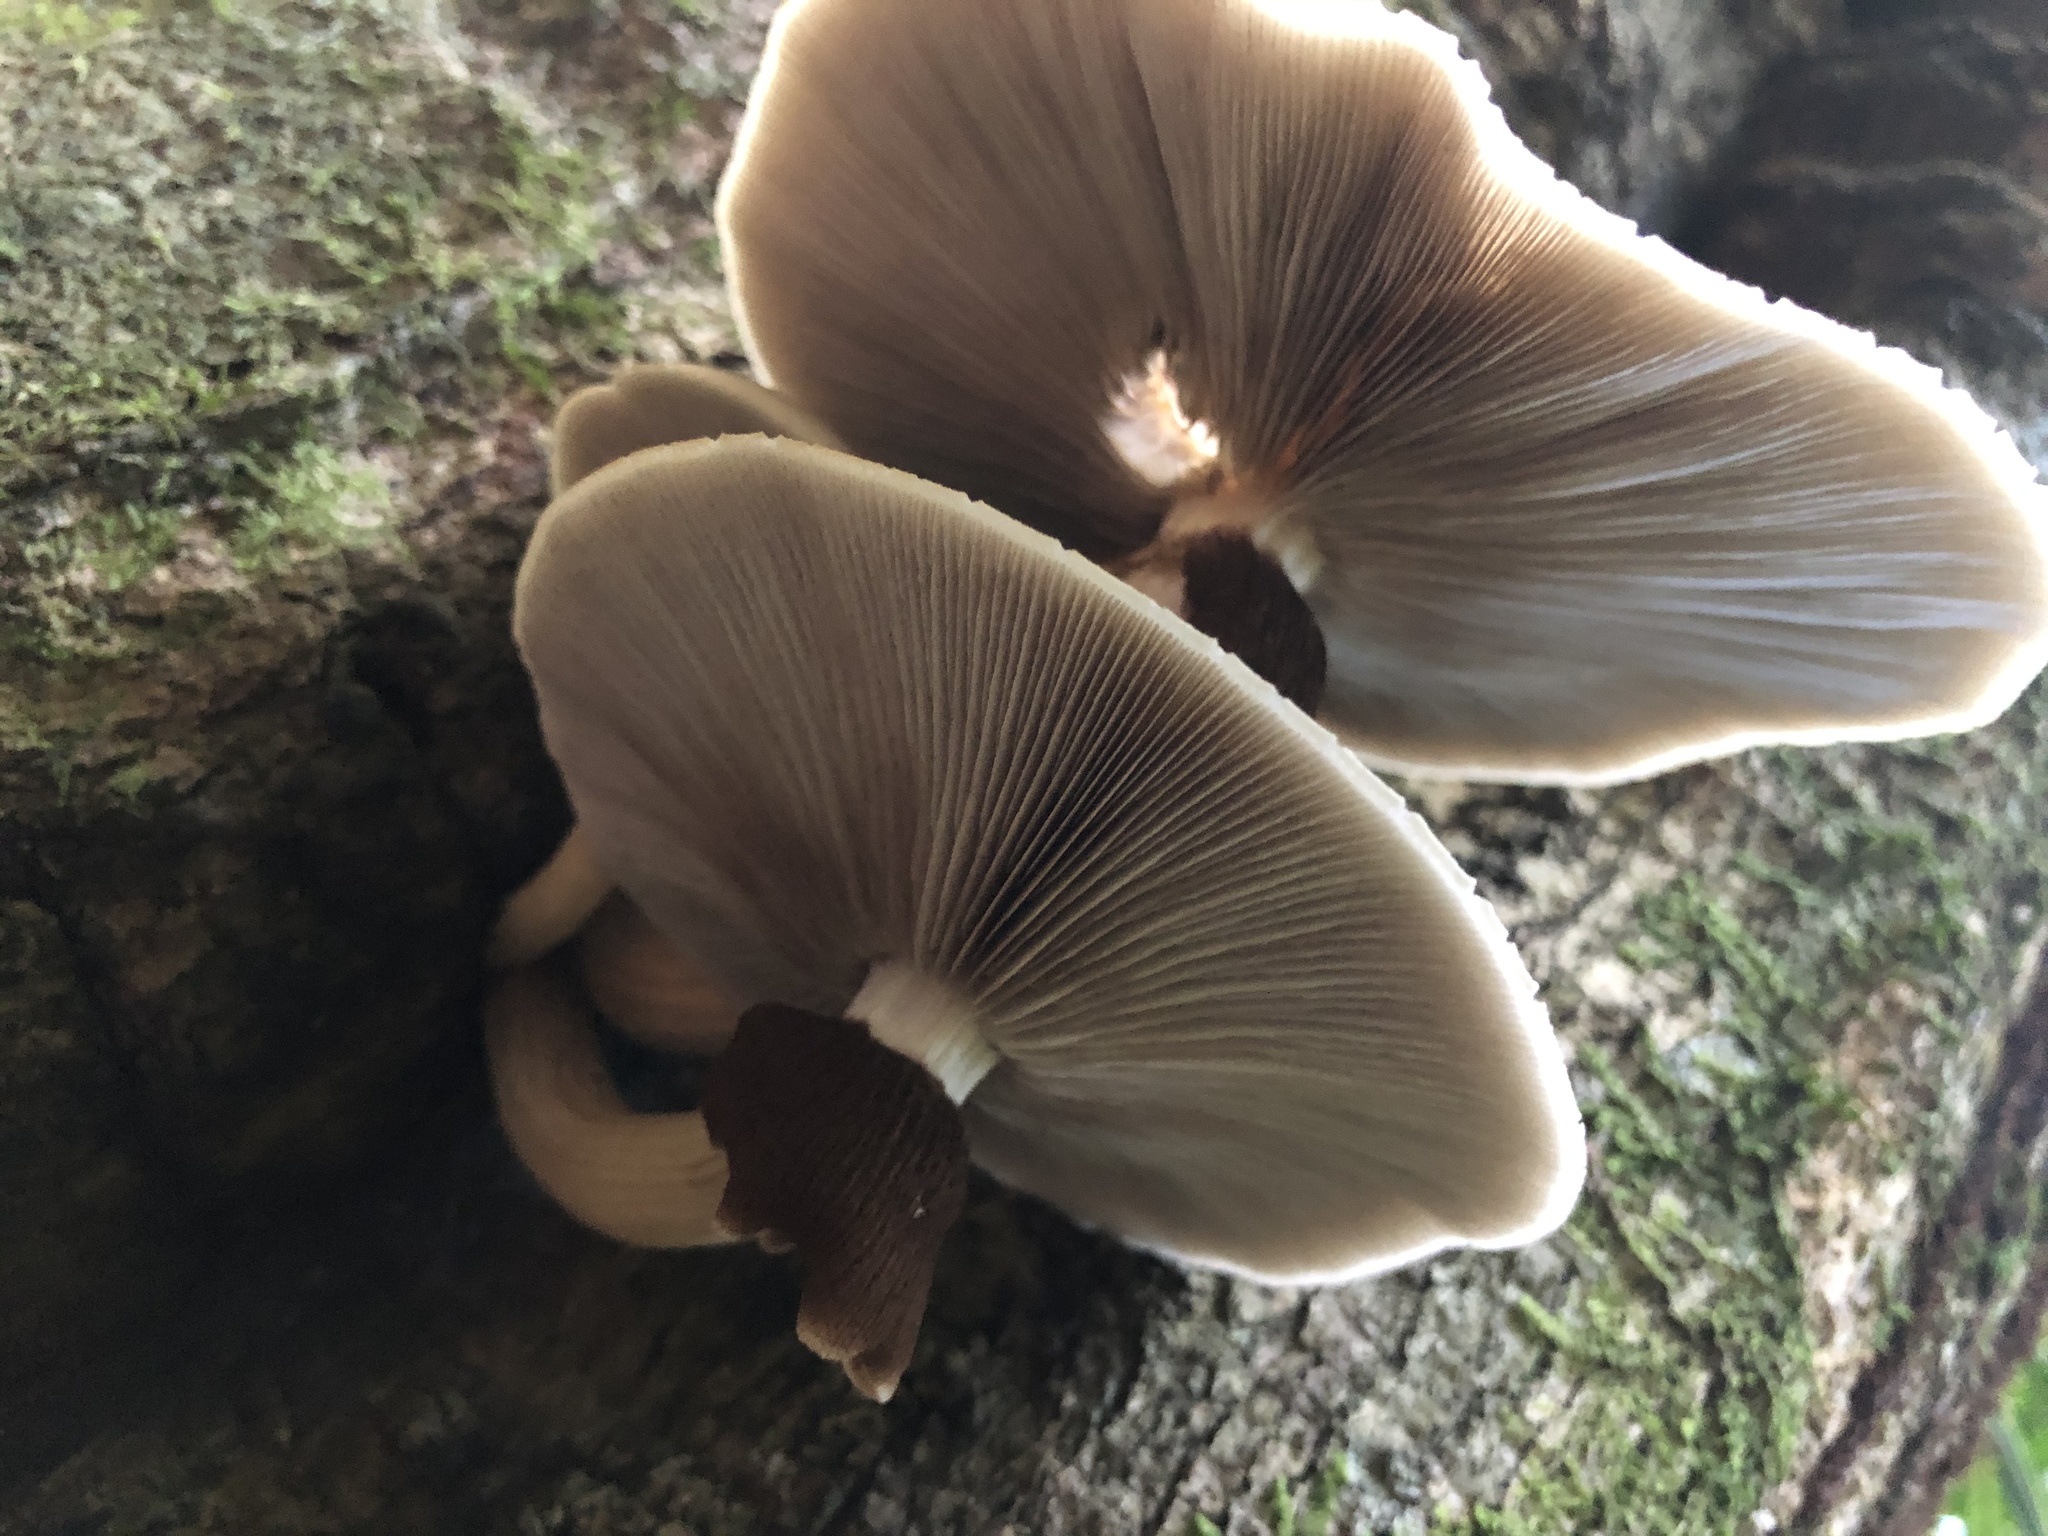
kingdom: Fungi
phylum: Basidiomycota
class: Agaricomycetes
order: Agaricales
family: Tubariaceae
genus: Cyclocybe
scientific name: Cyclocybe parasitica
